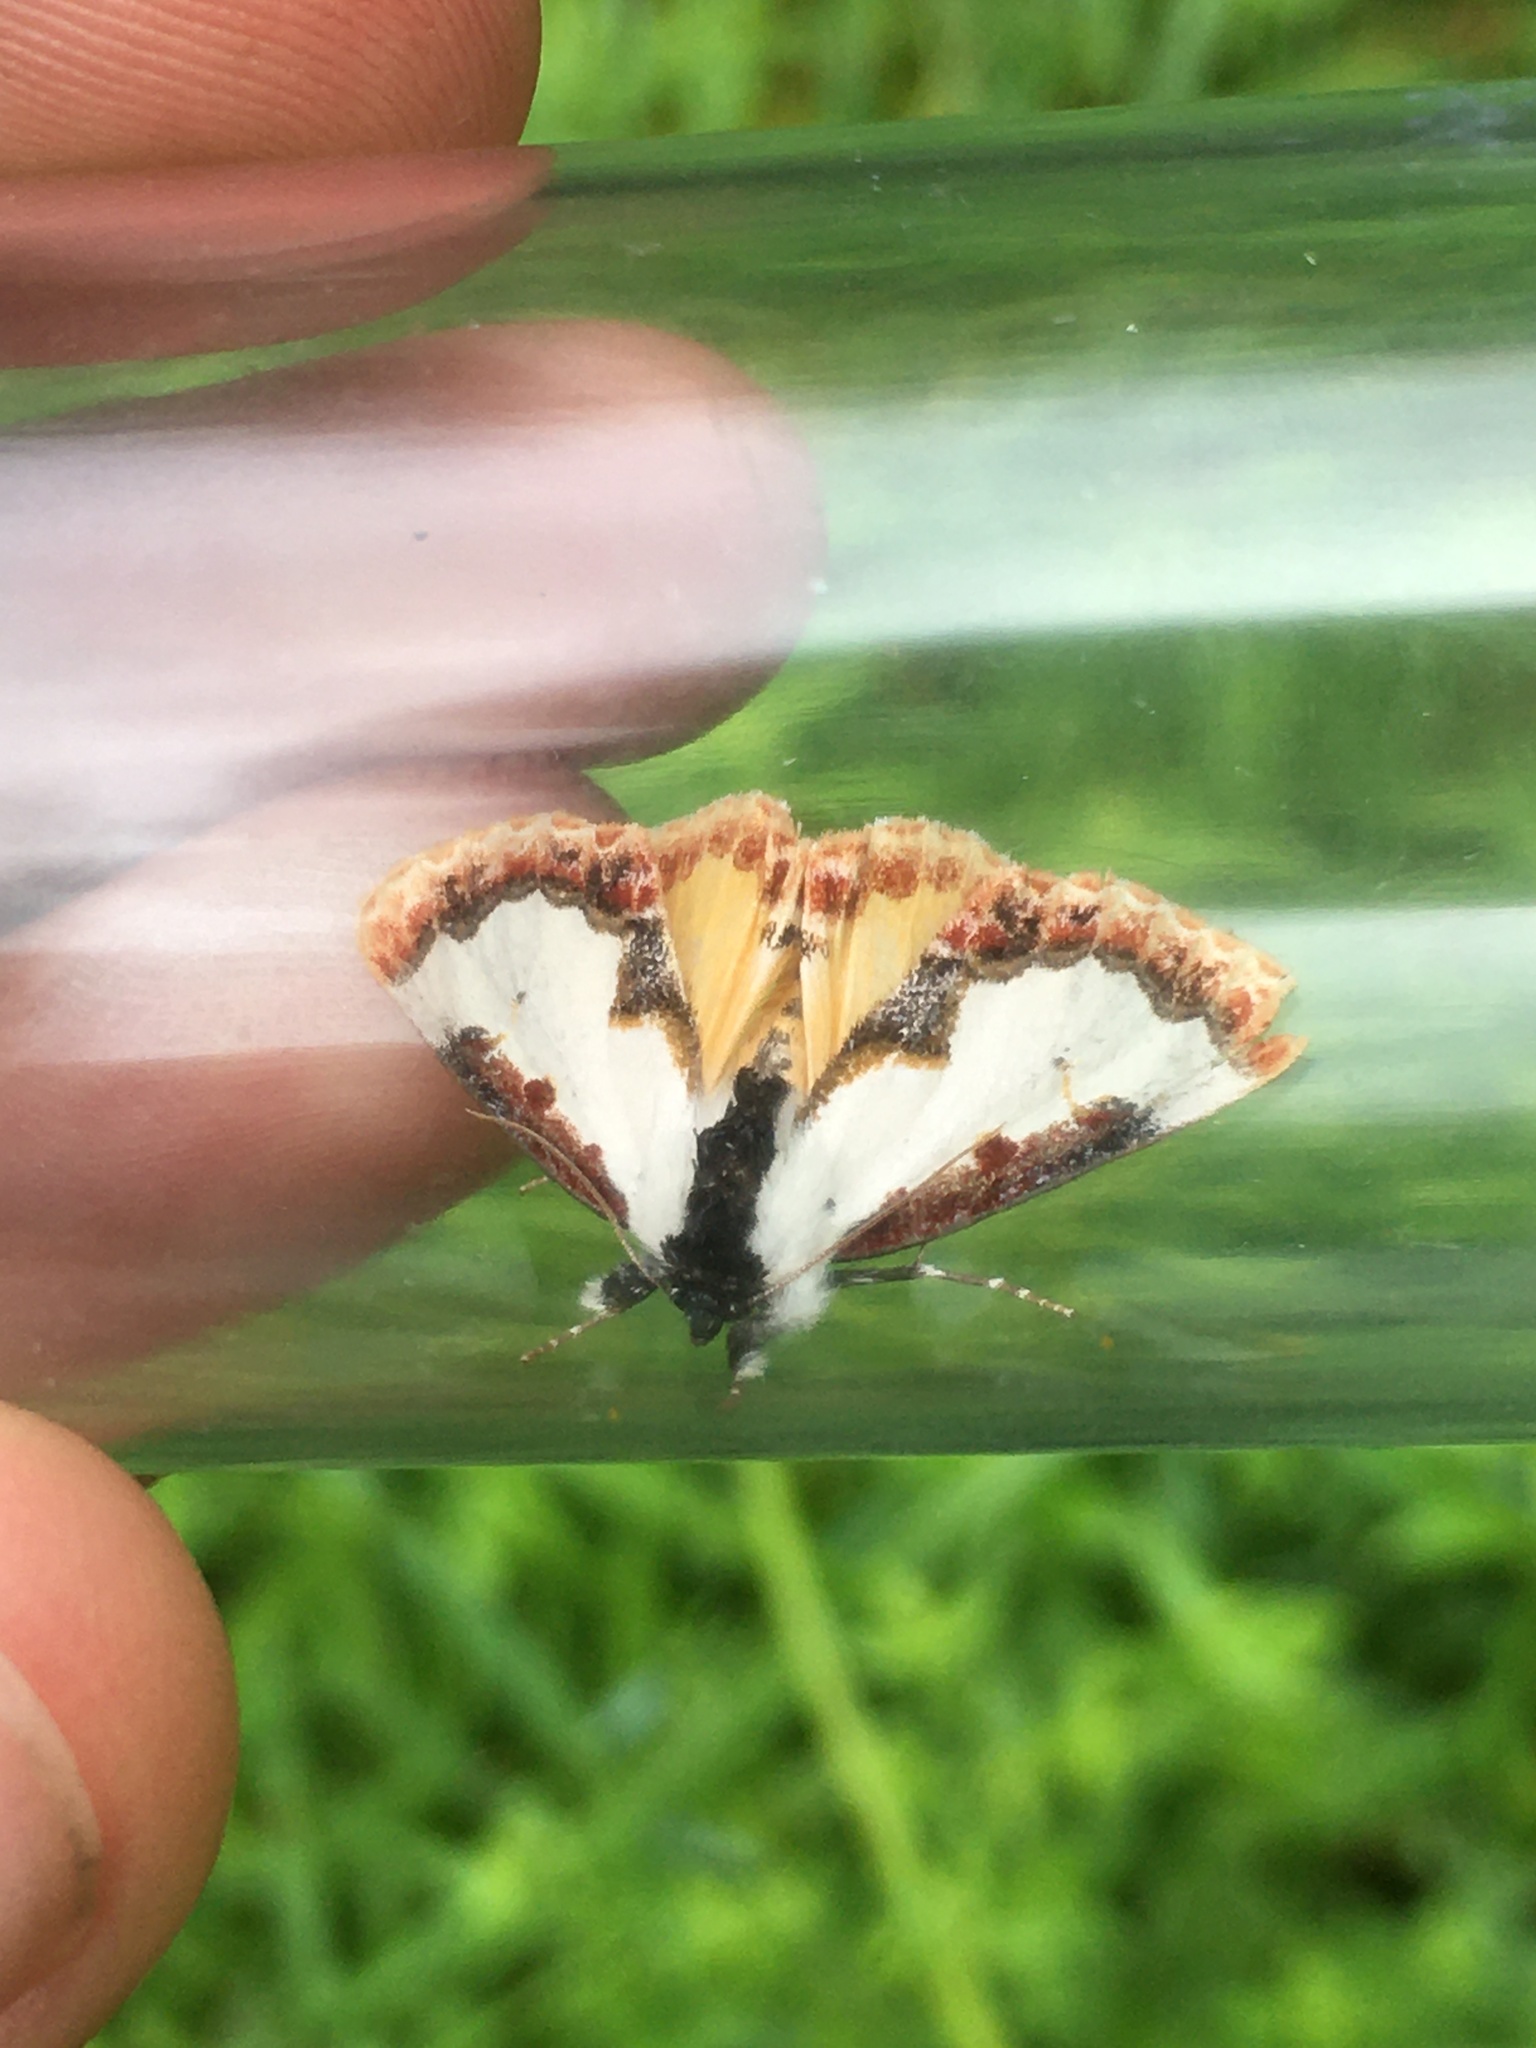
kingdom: Animalia
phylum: Arthropoda
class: Insecta
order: Lepidoptera
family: Noctuidae
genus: Eudryas
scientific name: Eudryas unio
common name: Pearly wood-nymph
